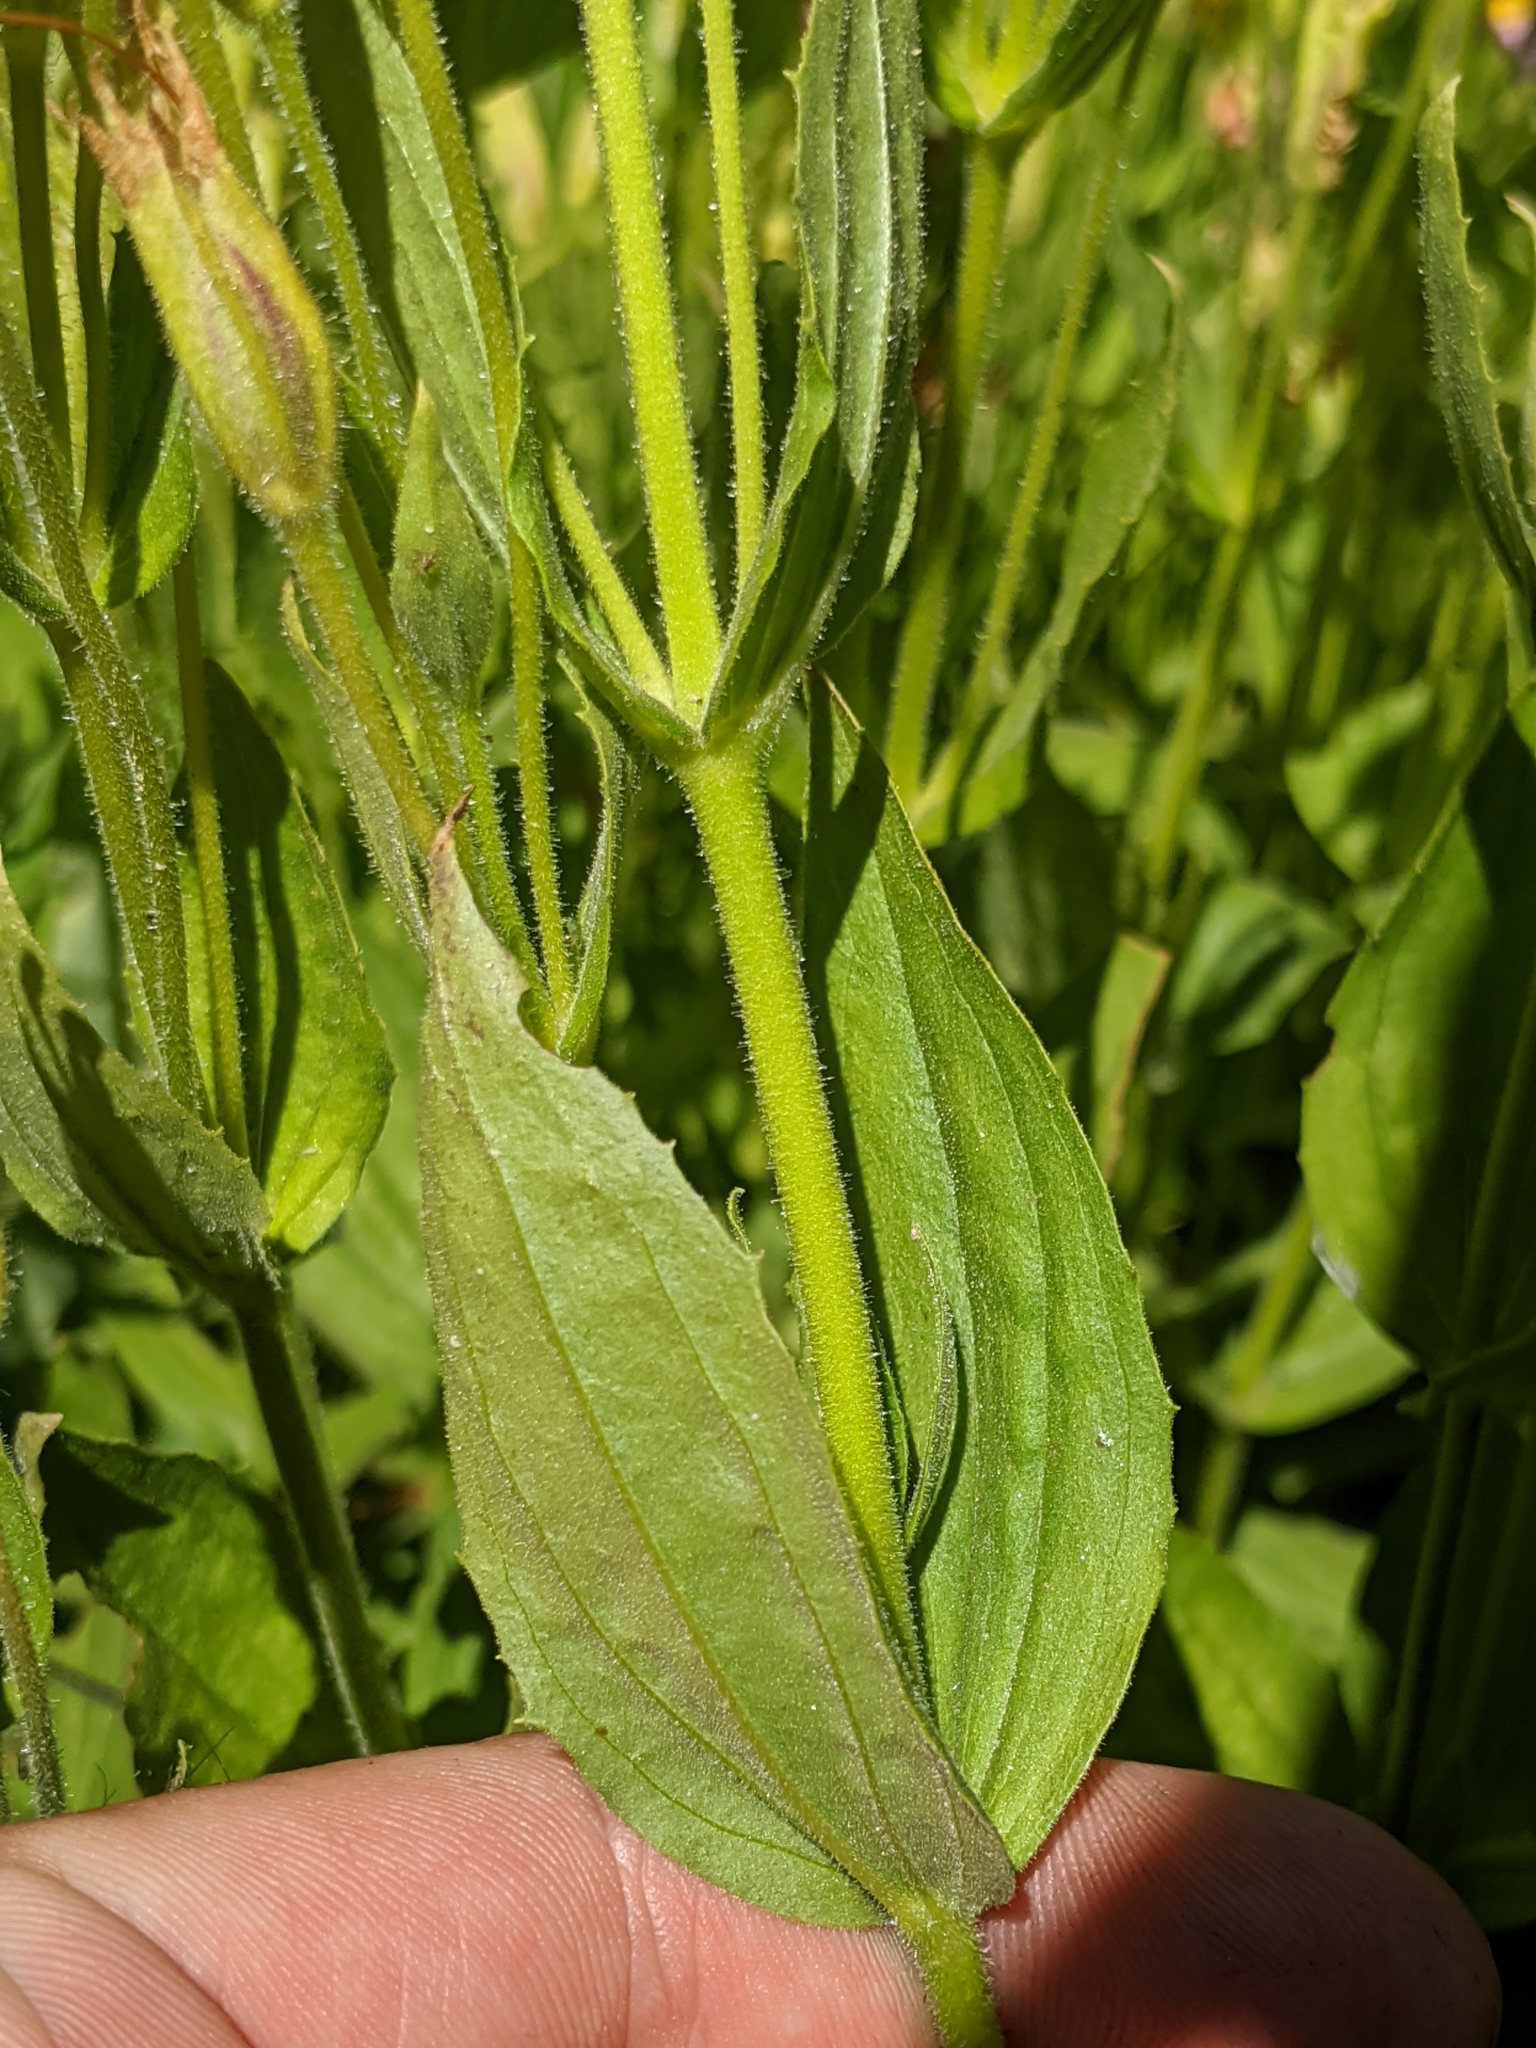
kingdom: Plantae
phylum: Tracheophyta
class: Magnoliopsida
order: Lamiales
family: Phrymaceae
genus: Erythranthe
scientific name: Erythranthe erubescens
